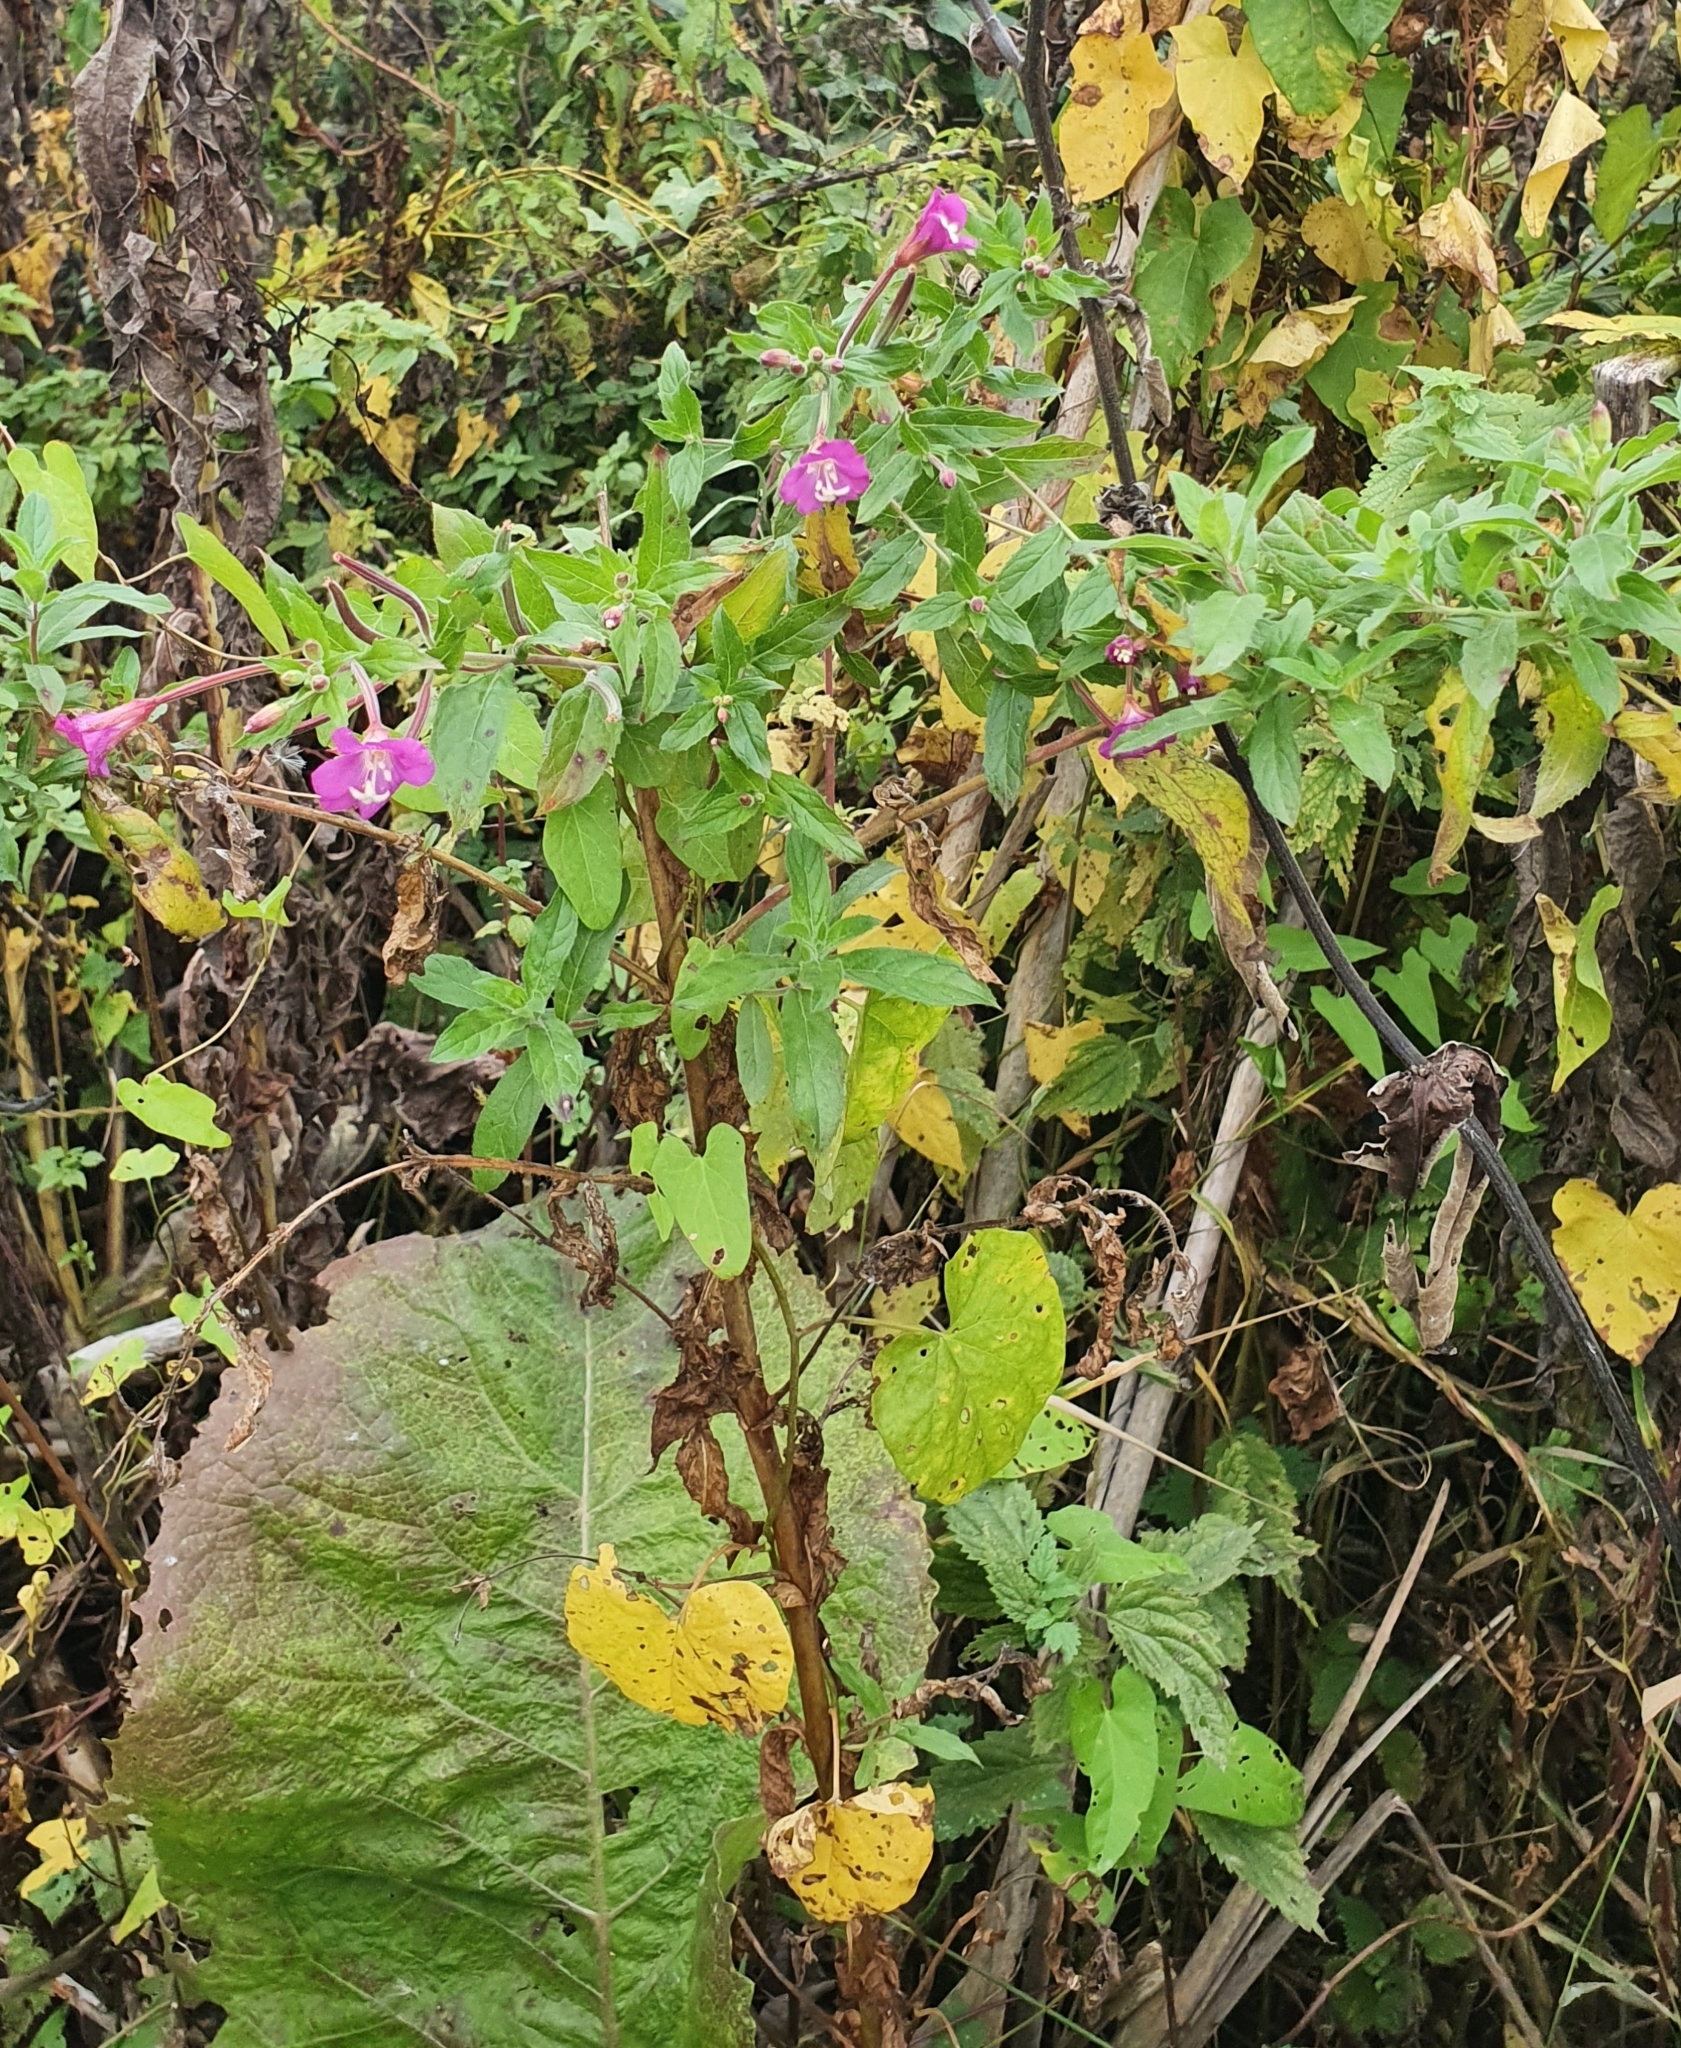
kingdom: Plantae
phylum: Tracheophyta
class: Magnoliopsida
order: Myrtales
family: Onagraceae
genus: Epilobium
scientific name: Epilobium hirsutum
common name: Great willowherb
